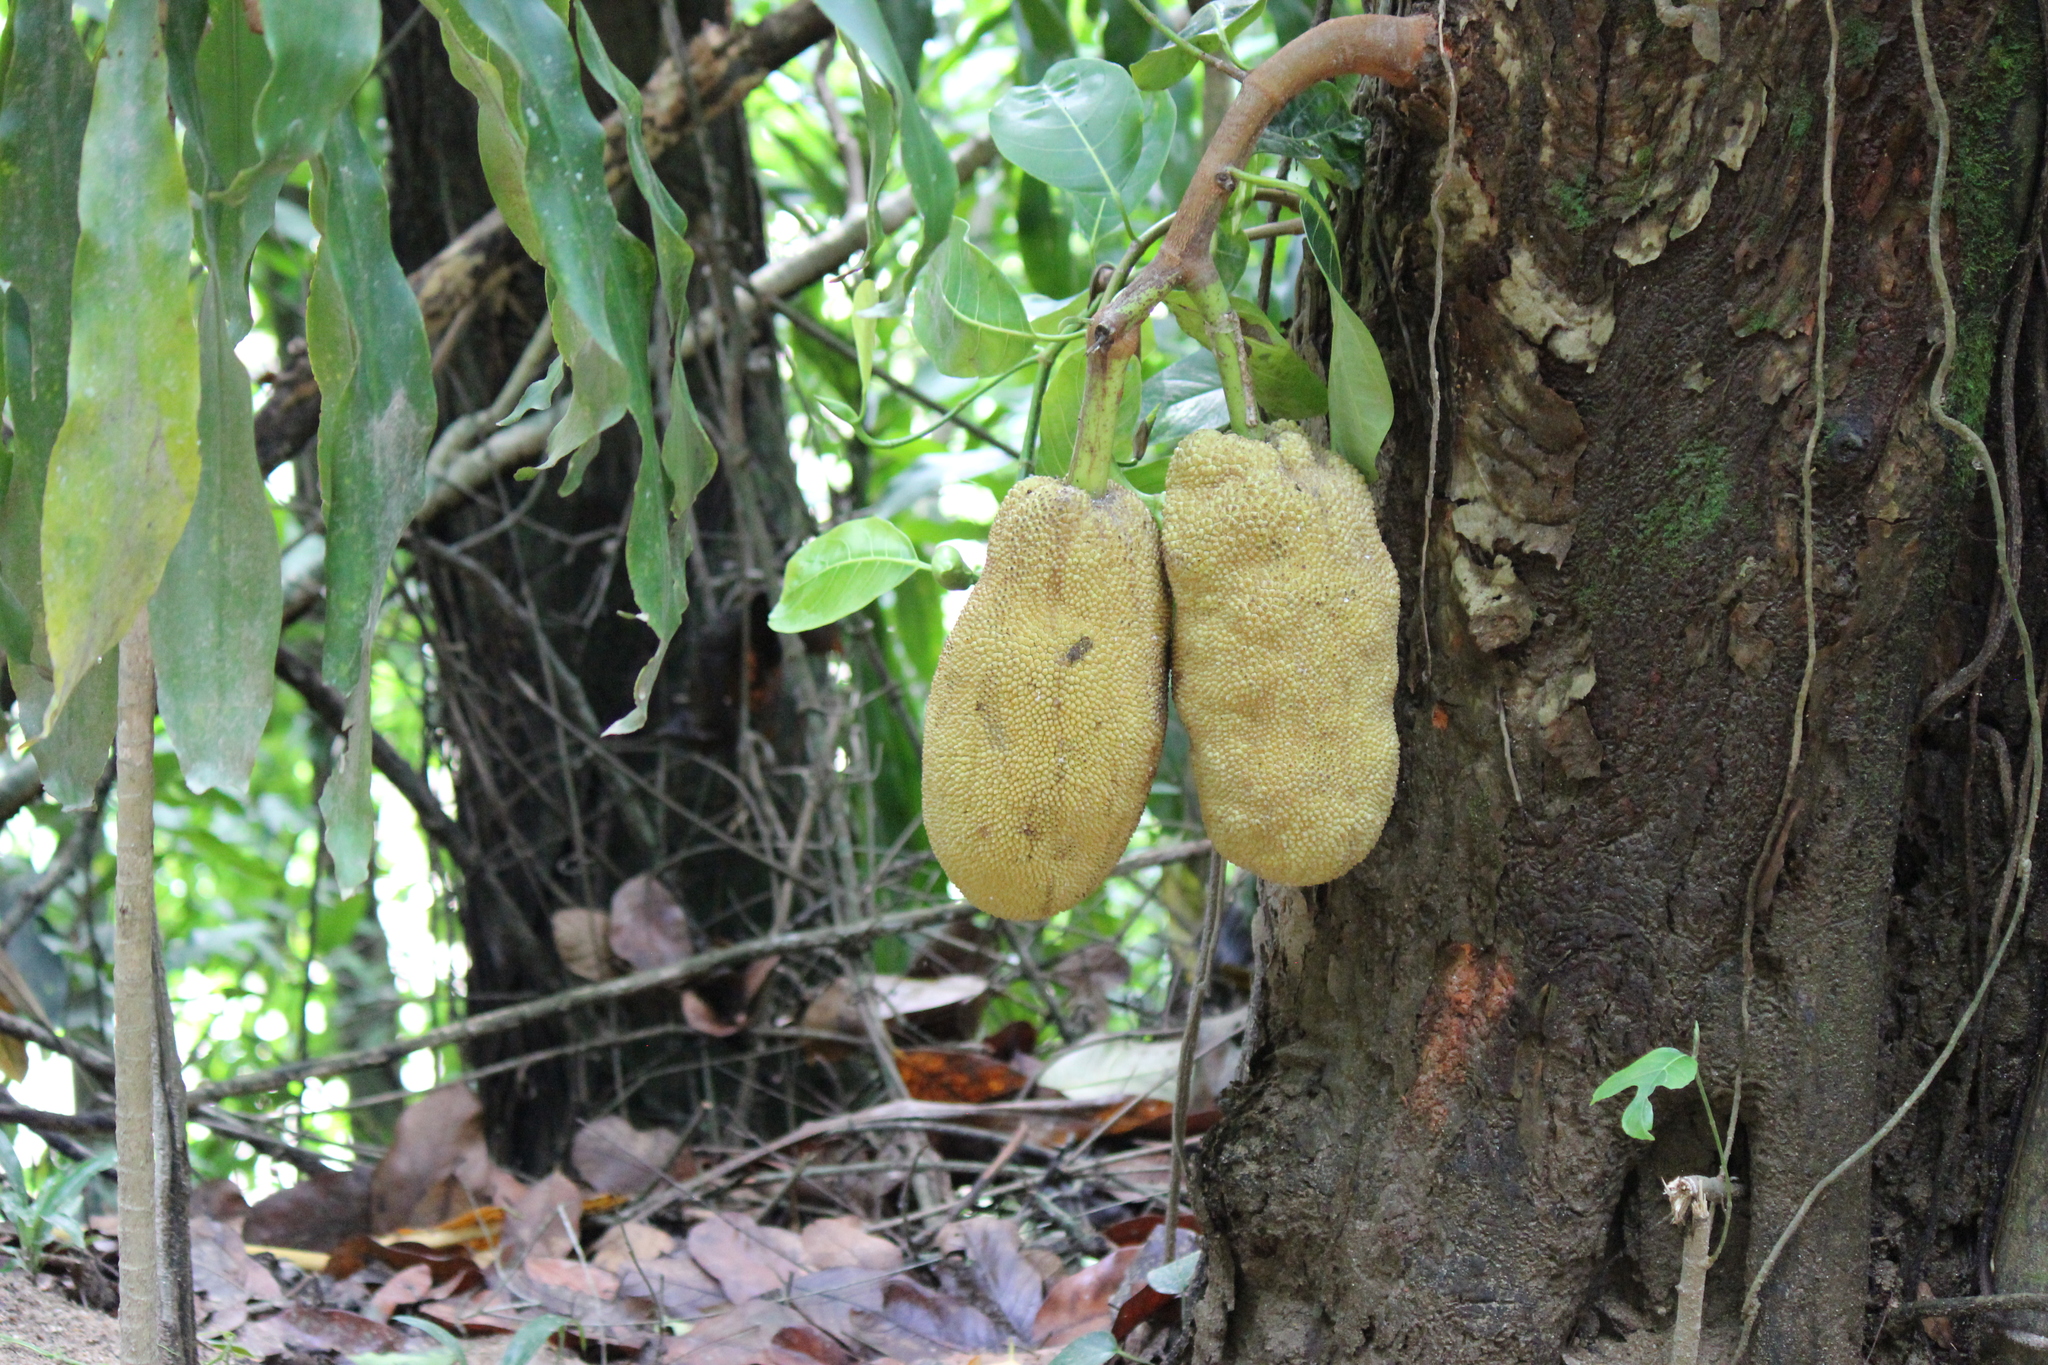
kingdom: Plantae
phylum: Tracheophyta
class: Magnoliopsida
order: Rosales
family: Moraceae
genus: Artocarpus
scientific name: Artocarpus heterophyllus
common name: Jackfruit
